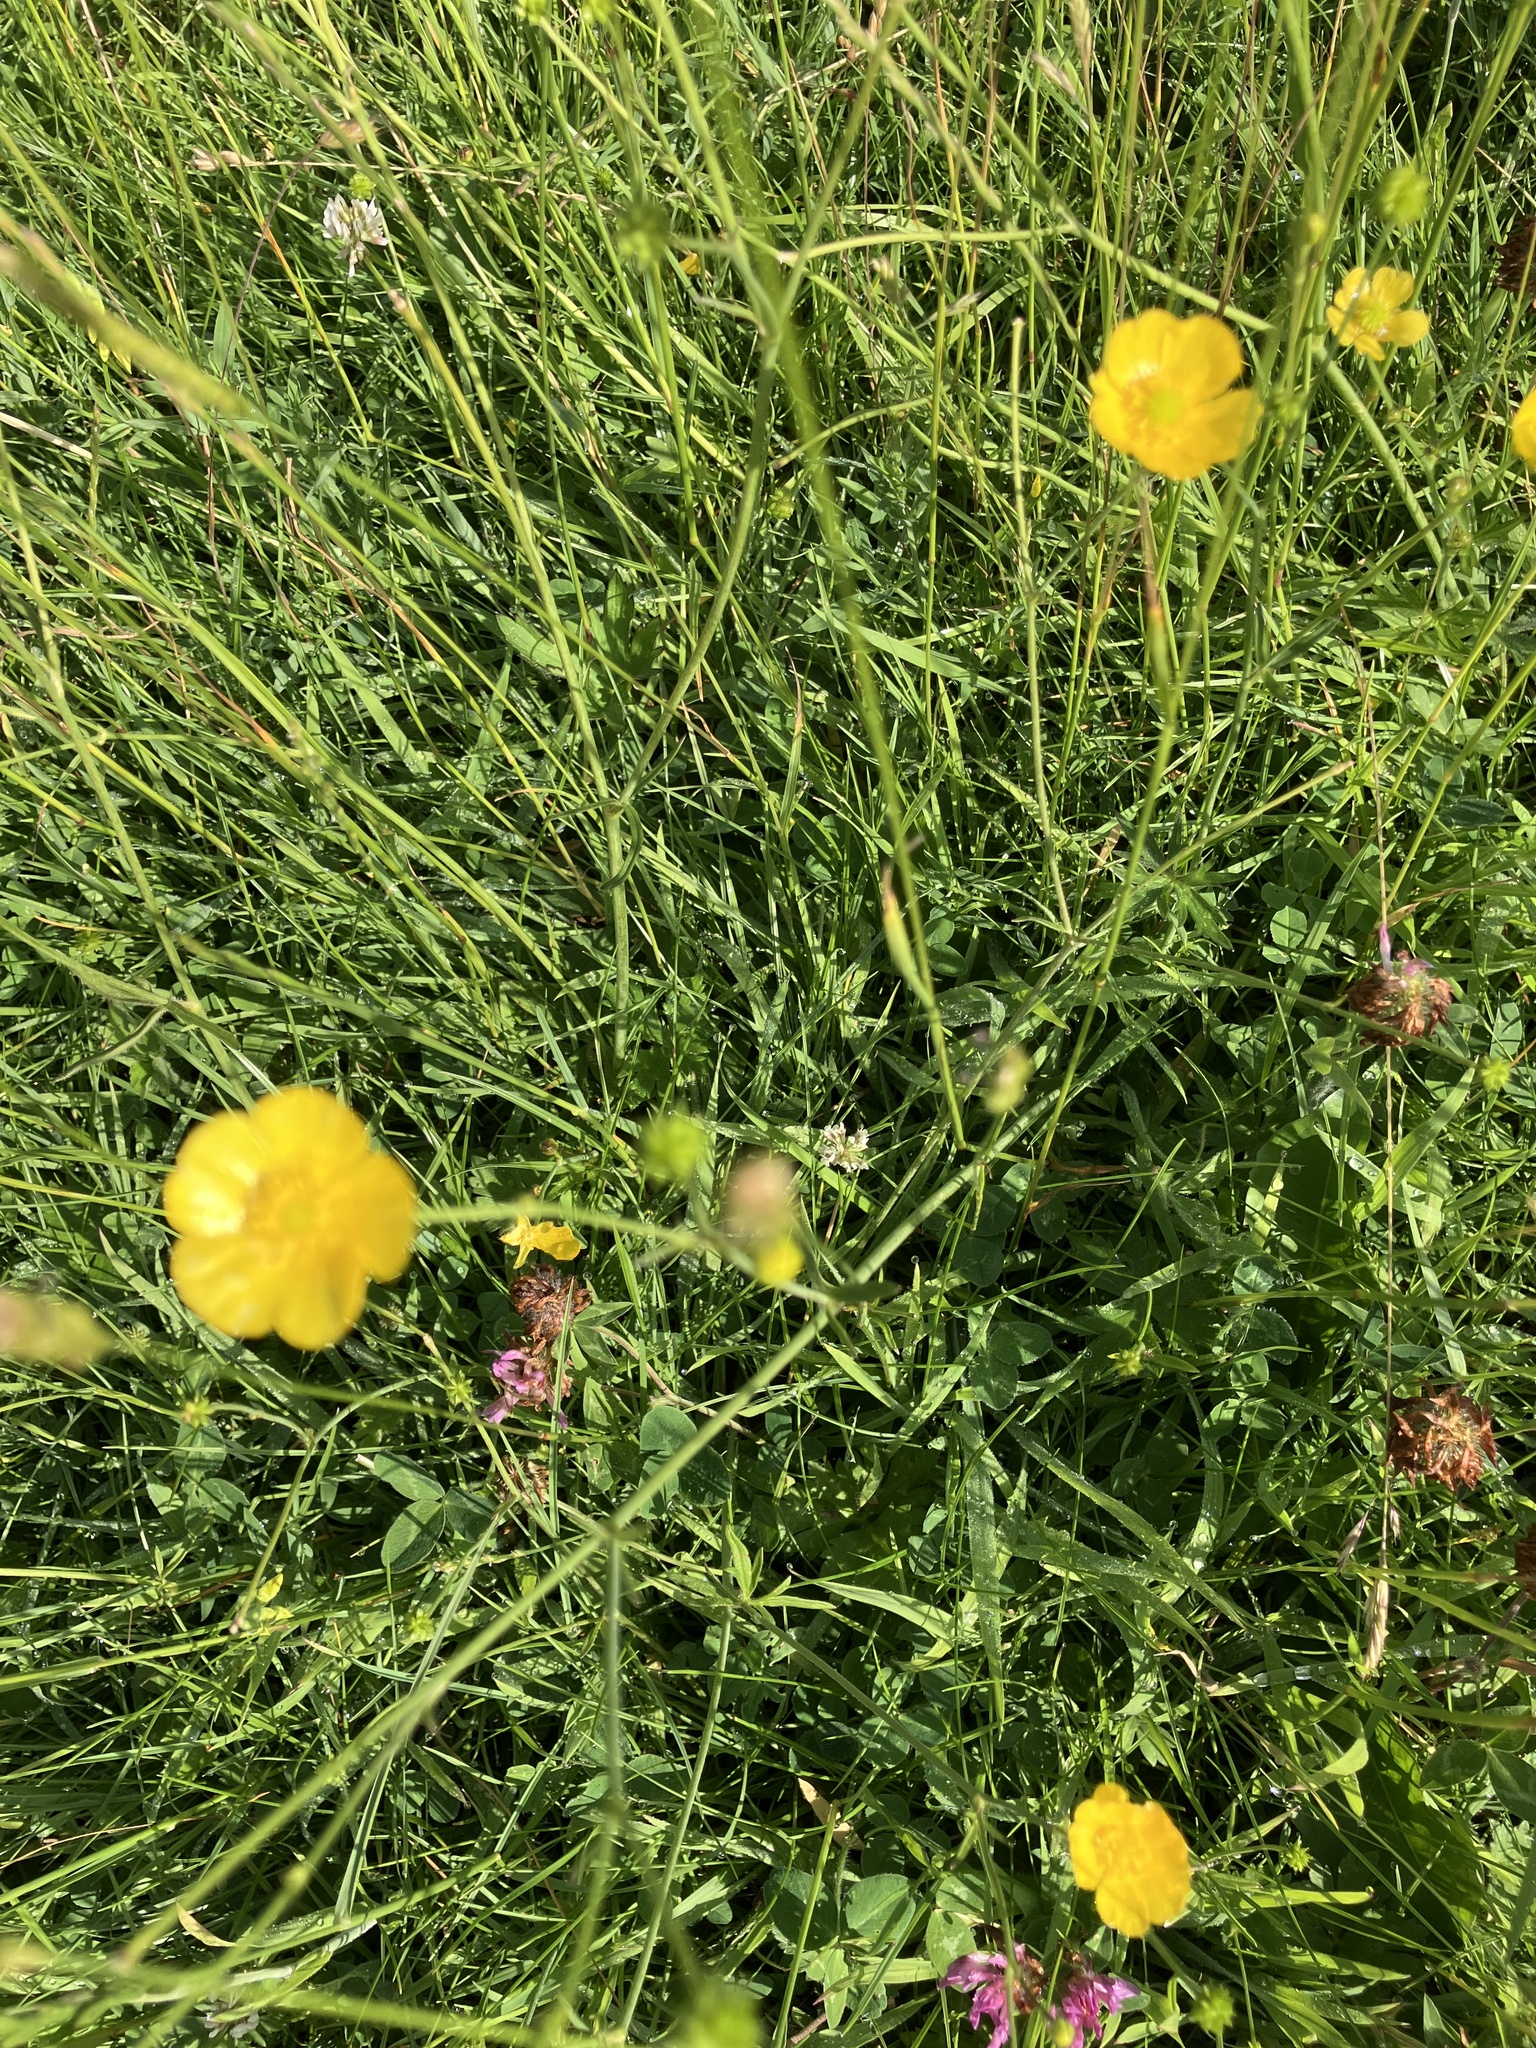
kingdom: Plantae
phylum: Tracheophyta
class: Magnoliopsida
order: Ranunculales
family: Ranunculaceae
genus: Ranunculus
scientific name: Ranunculus acris
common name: Meadow buttercup
